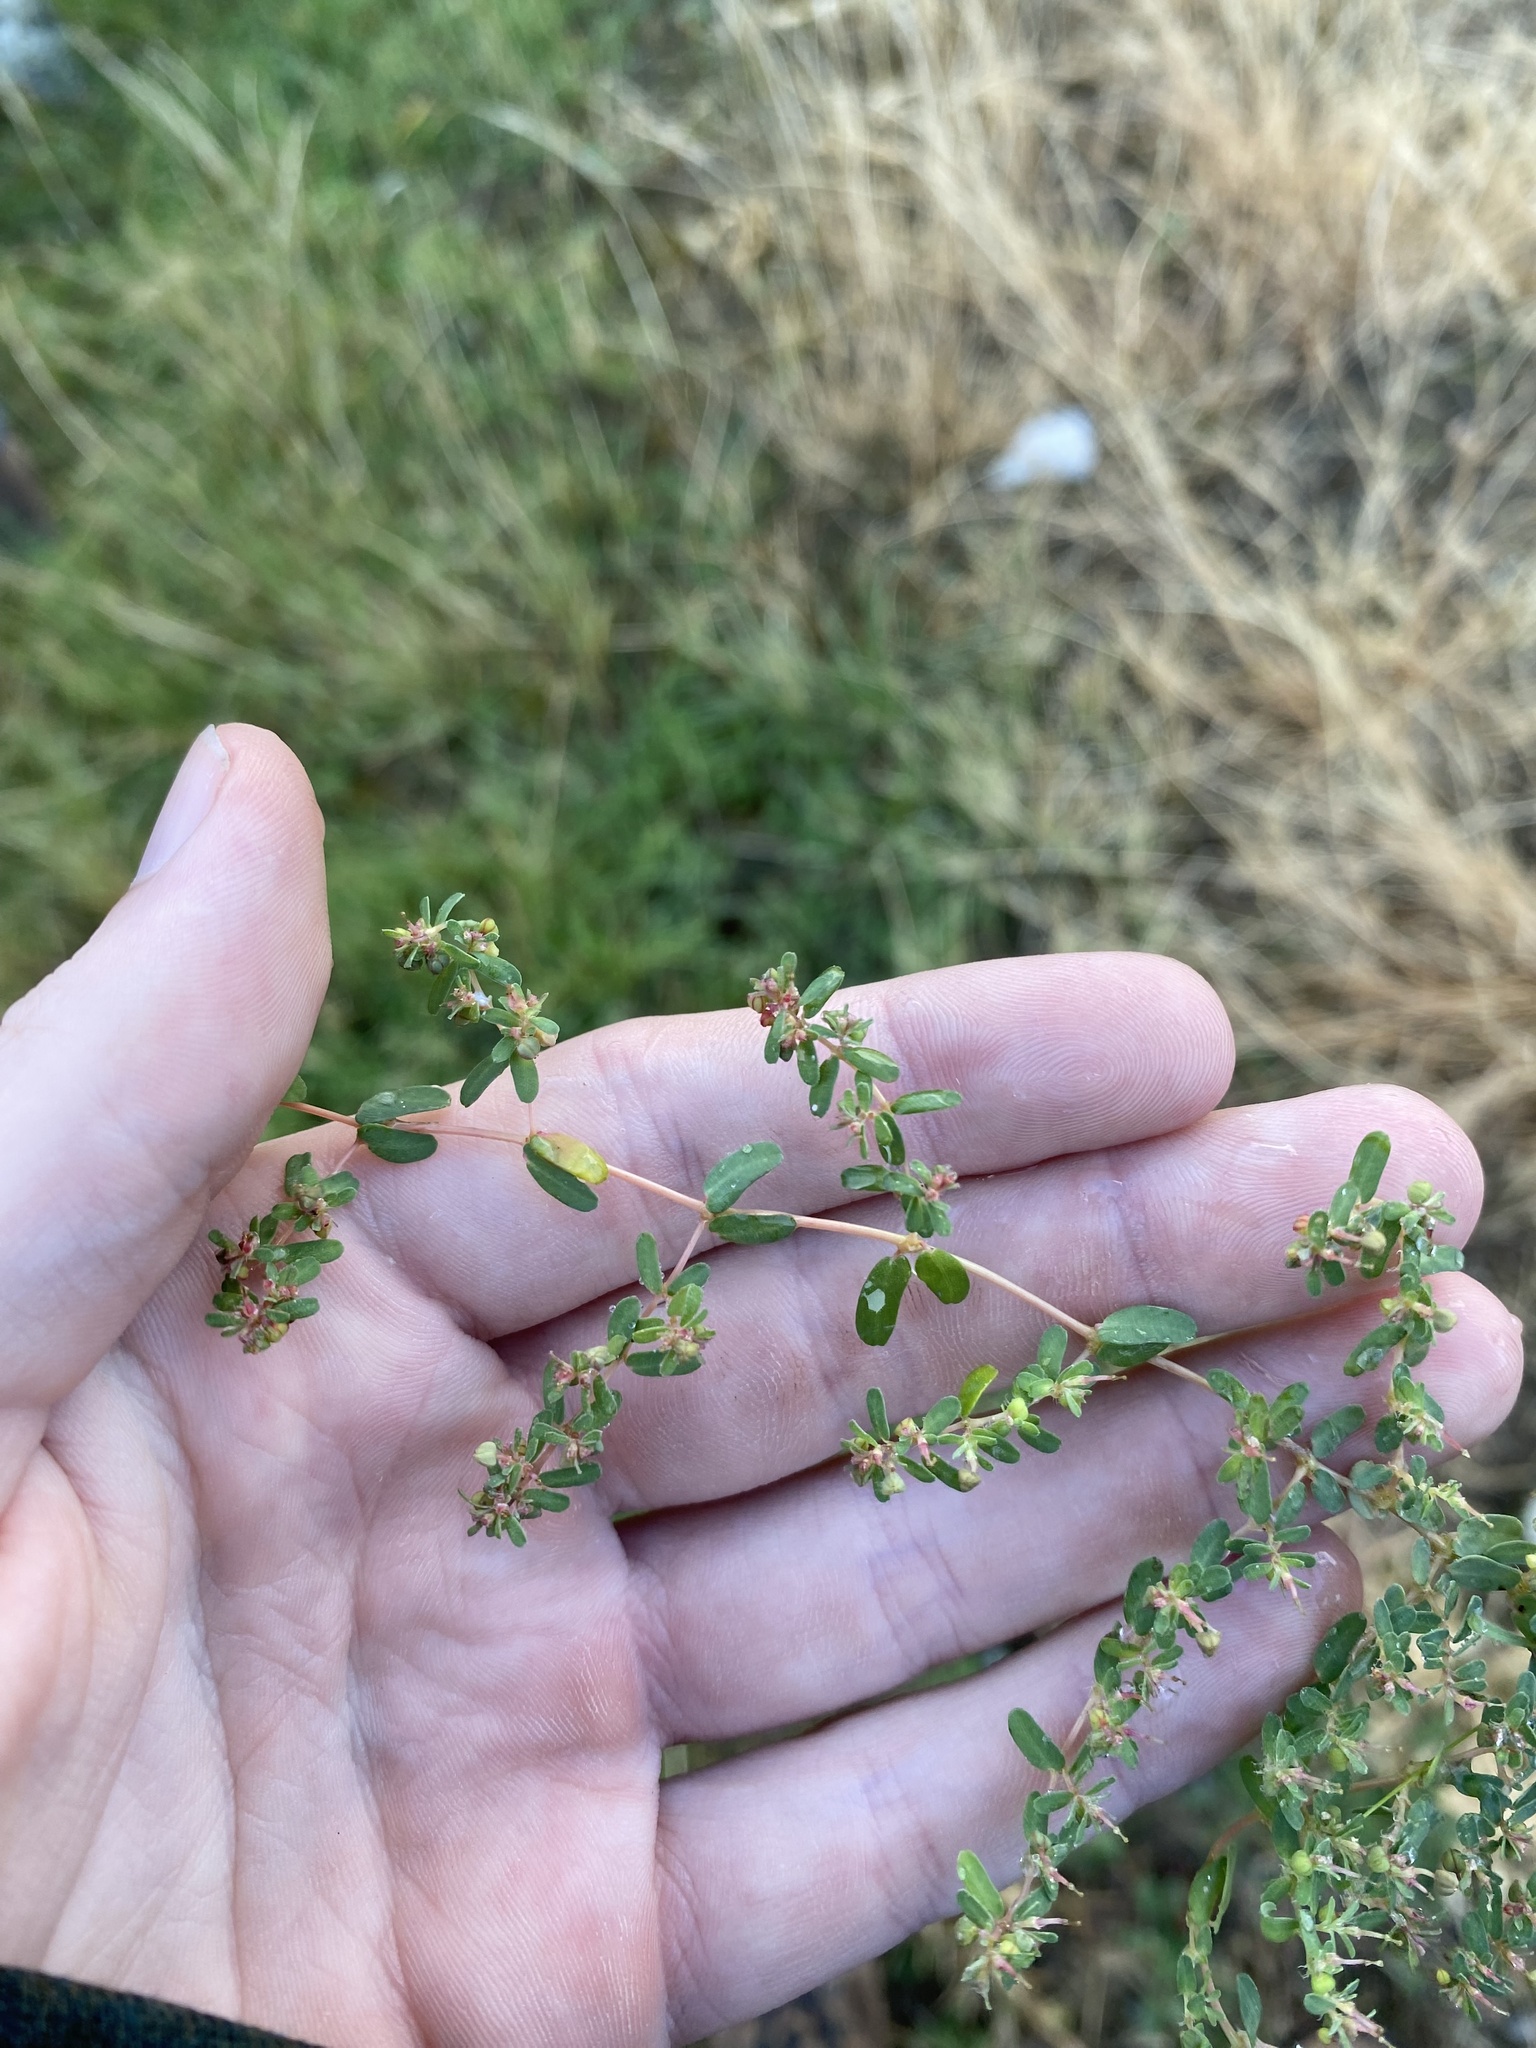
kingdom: Plantae
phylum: Tracheophyta
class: Magnoliopsida
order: Malpighiales
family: Euphorbiaceae
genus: Euphorbia
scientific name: Euphorbia glyptosperma
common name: Corrugate-seeded spurge
